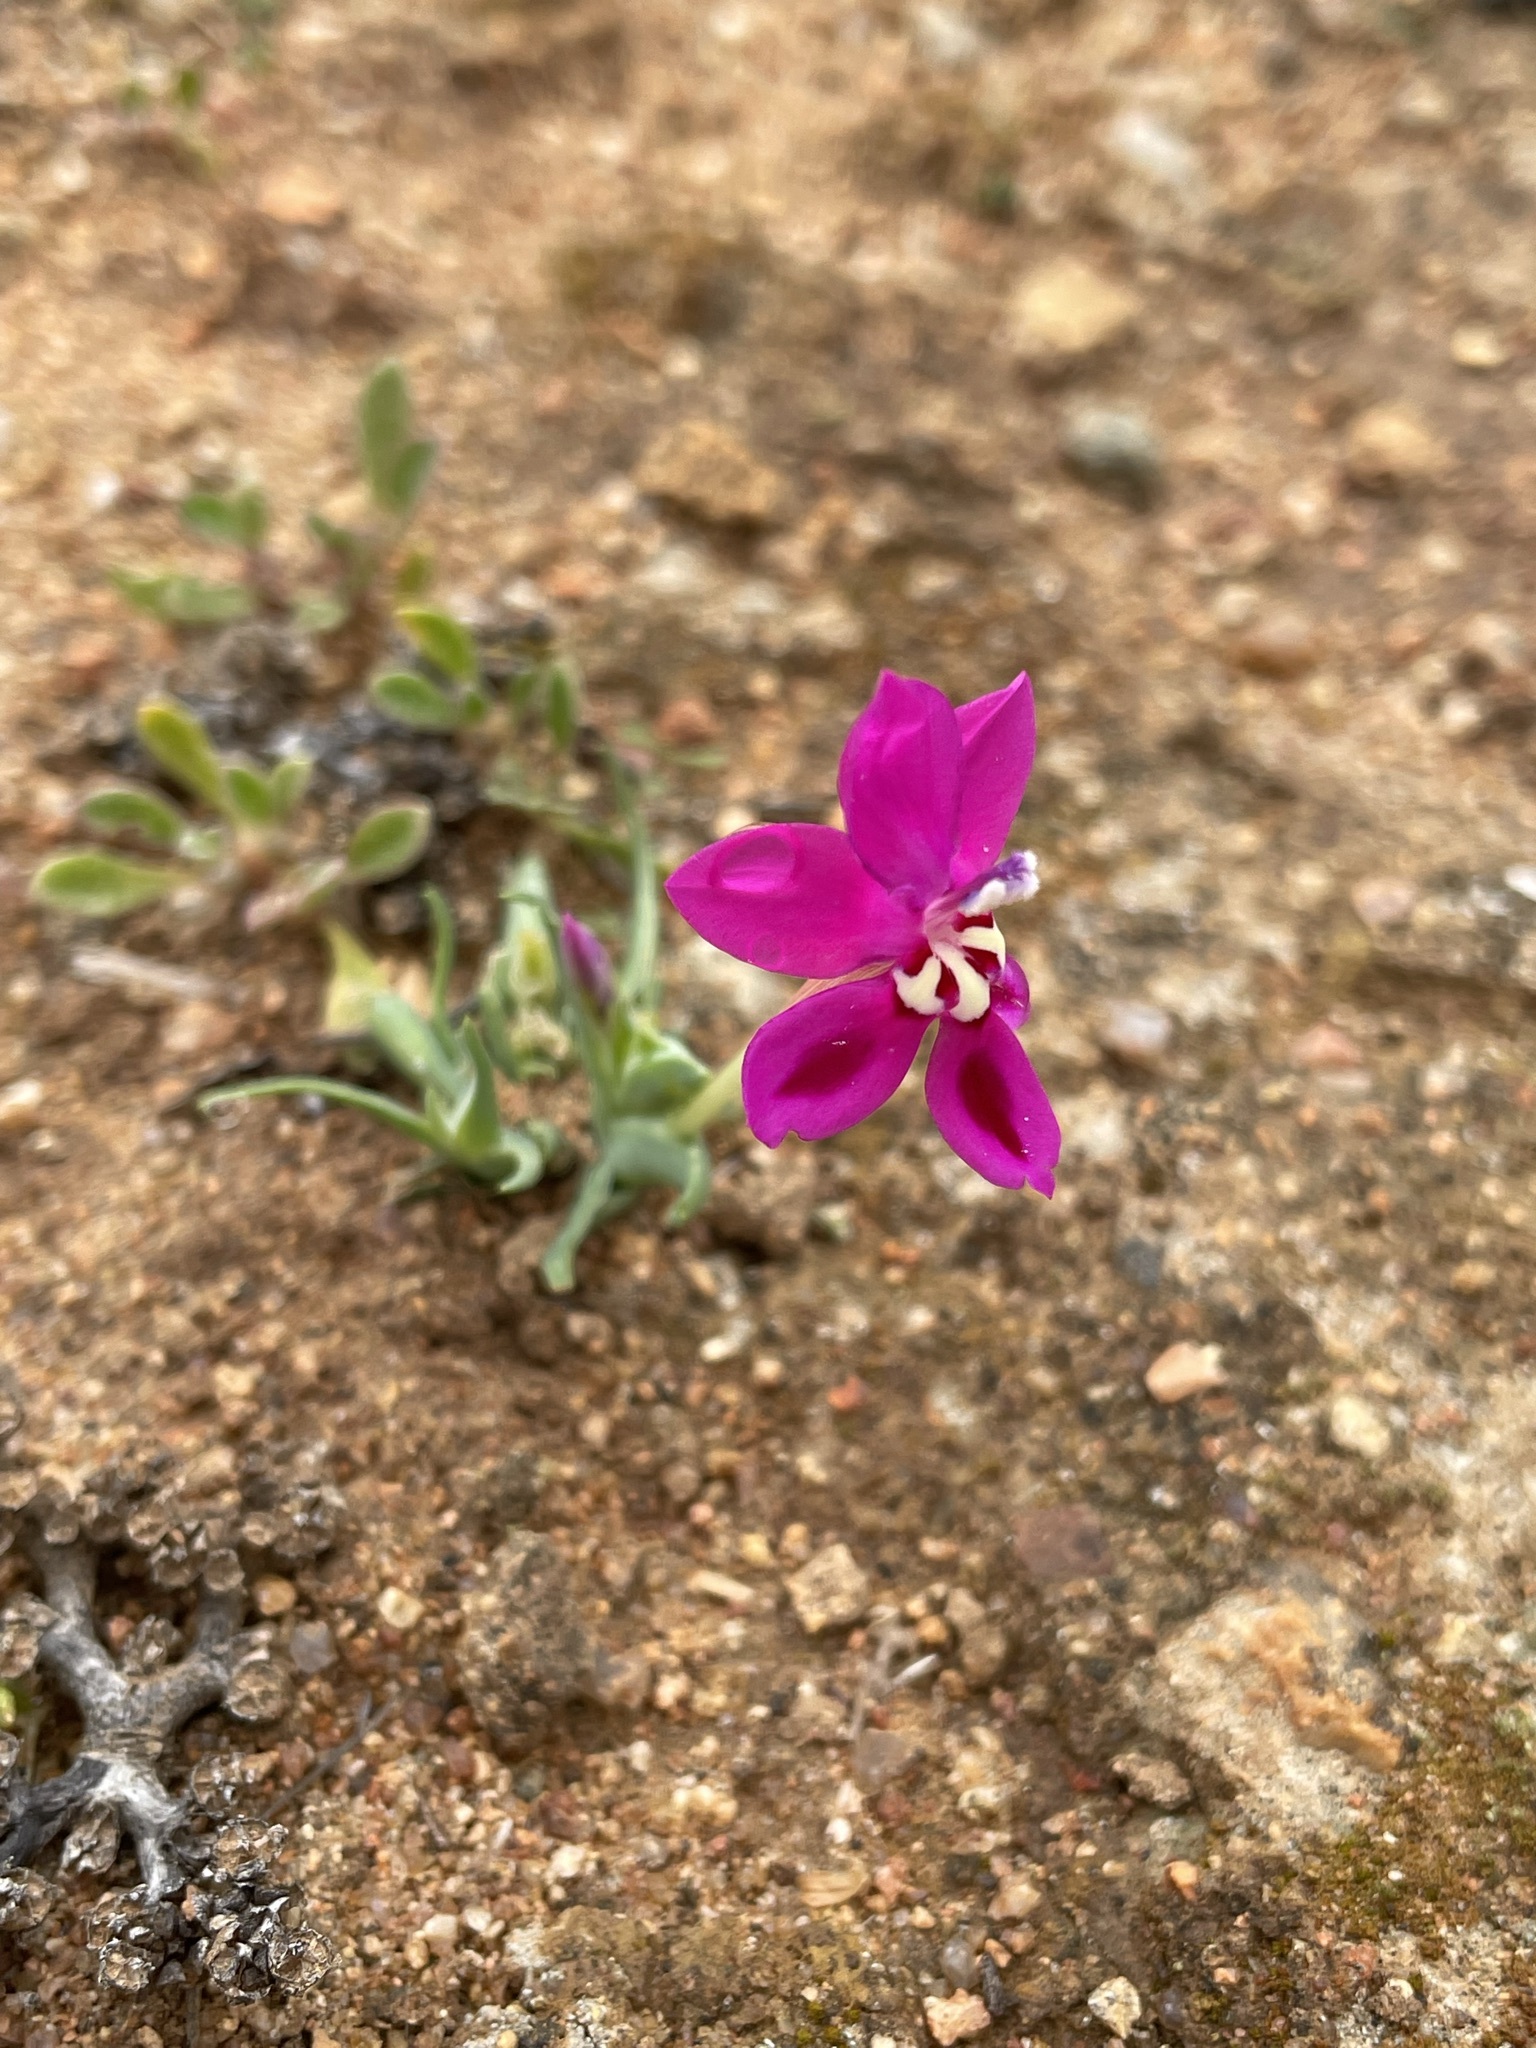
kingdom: Plantae
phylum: Tracheophyta
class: Liliopsida
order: Asparagales
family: Iridaceae
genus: Lapeirousia
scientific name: Lapeirousia silenoides
